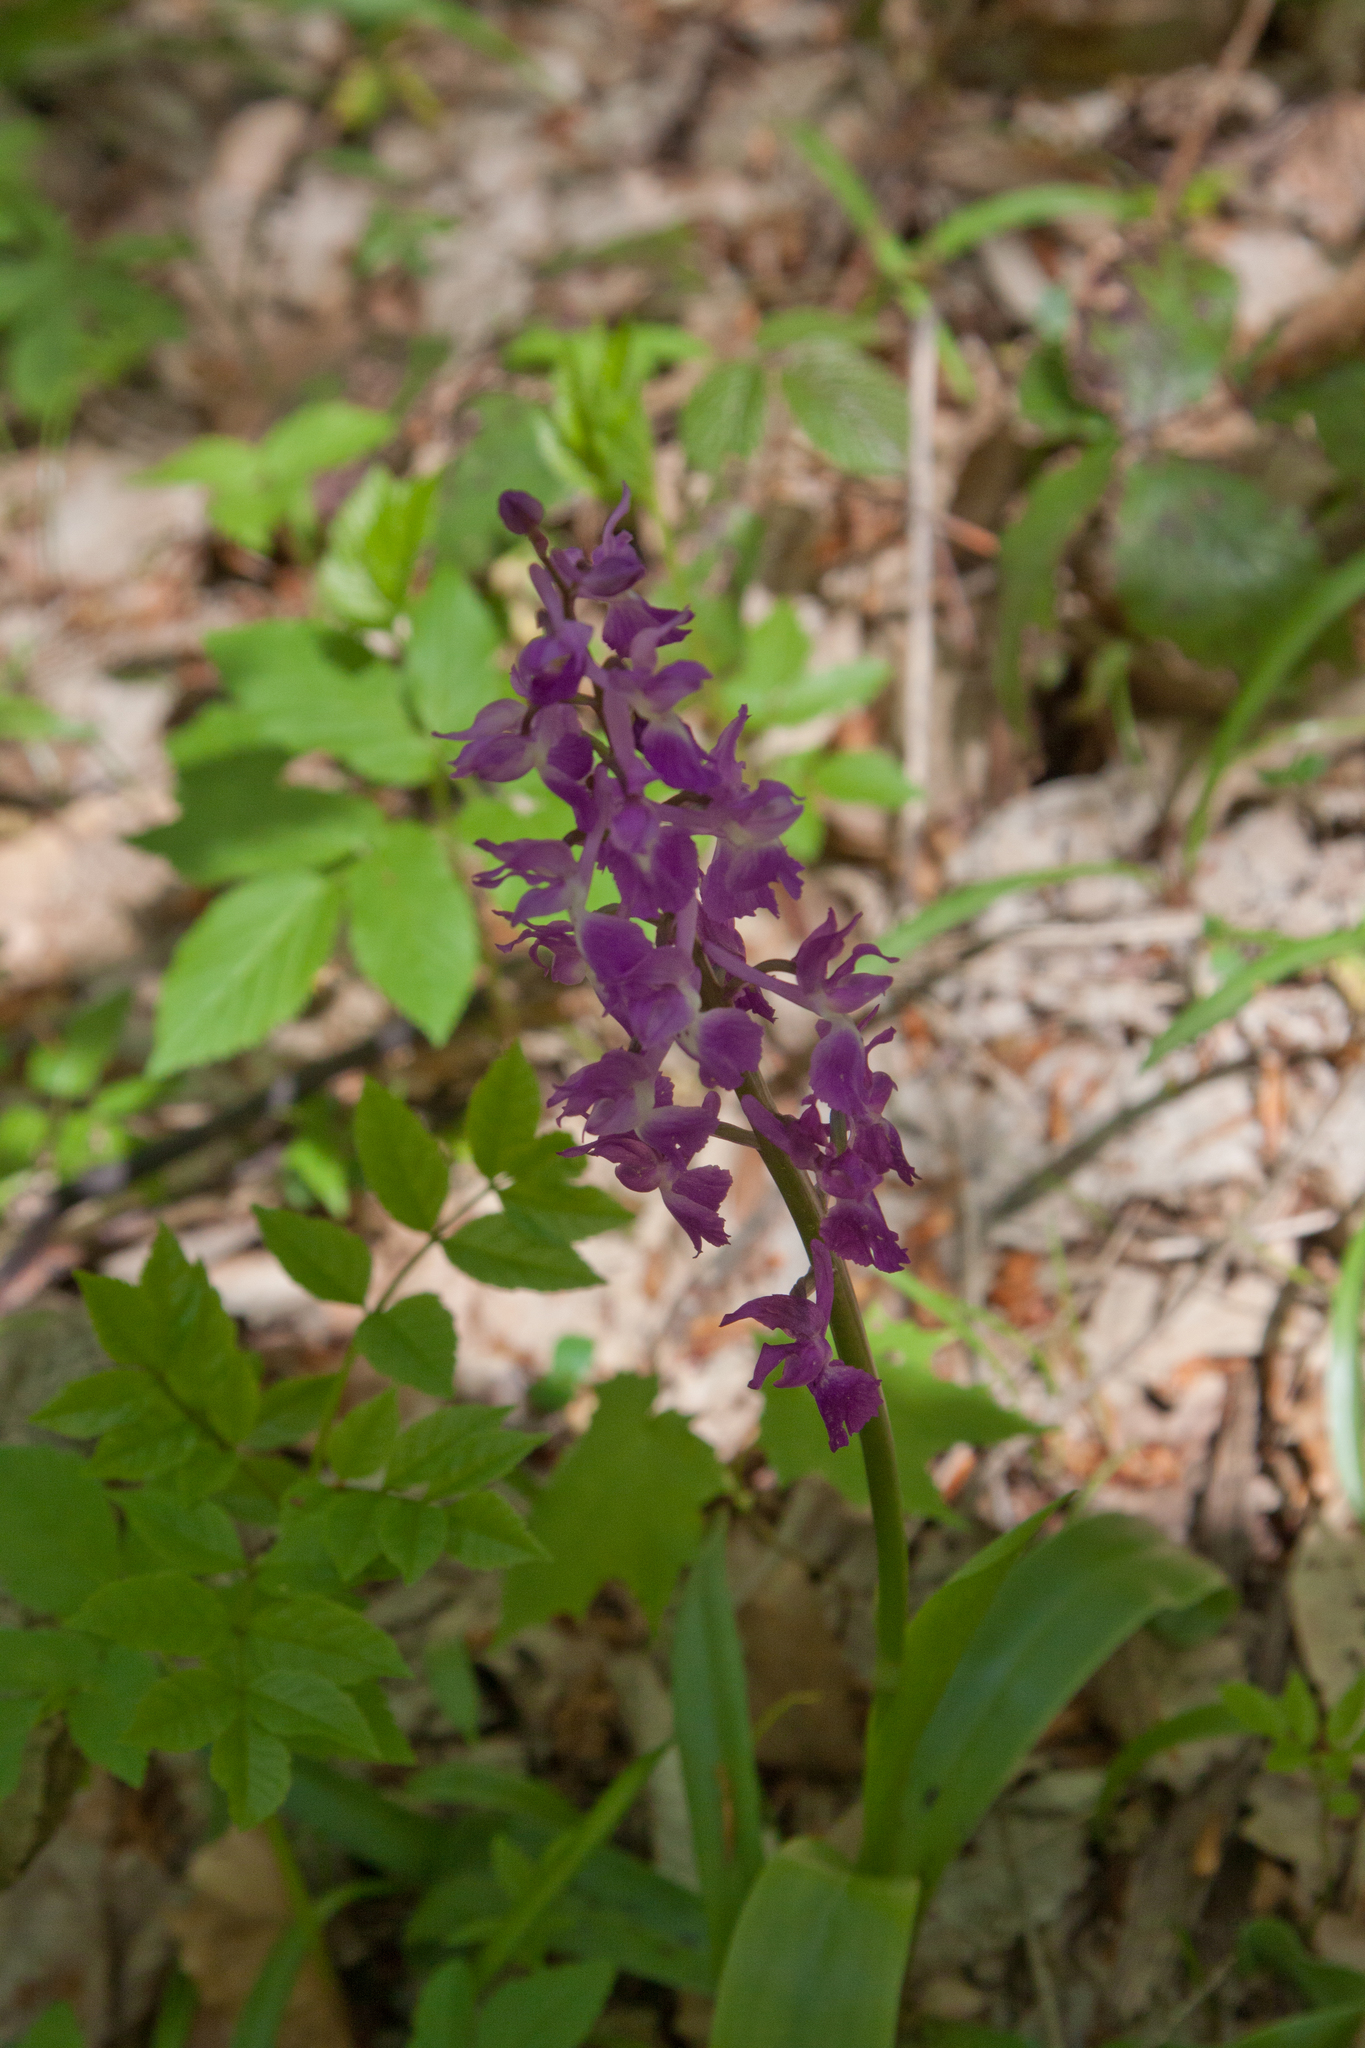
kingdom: Plantae
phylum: Tracheophyta
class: Liliopsida
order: Asparagales
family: Orchidaceae
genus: Orchis
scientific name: Orchis mascula
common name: Early-purple orchid
